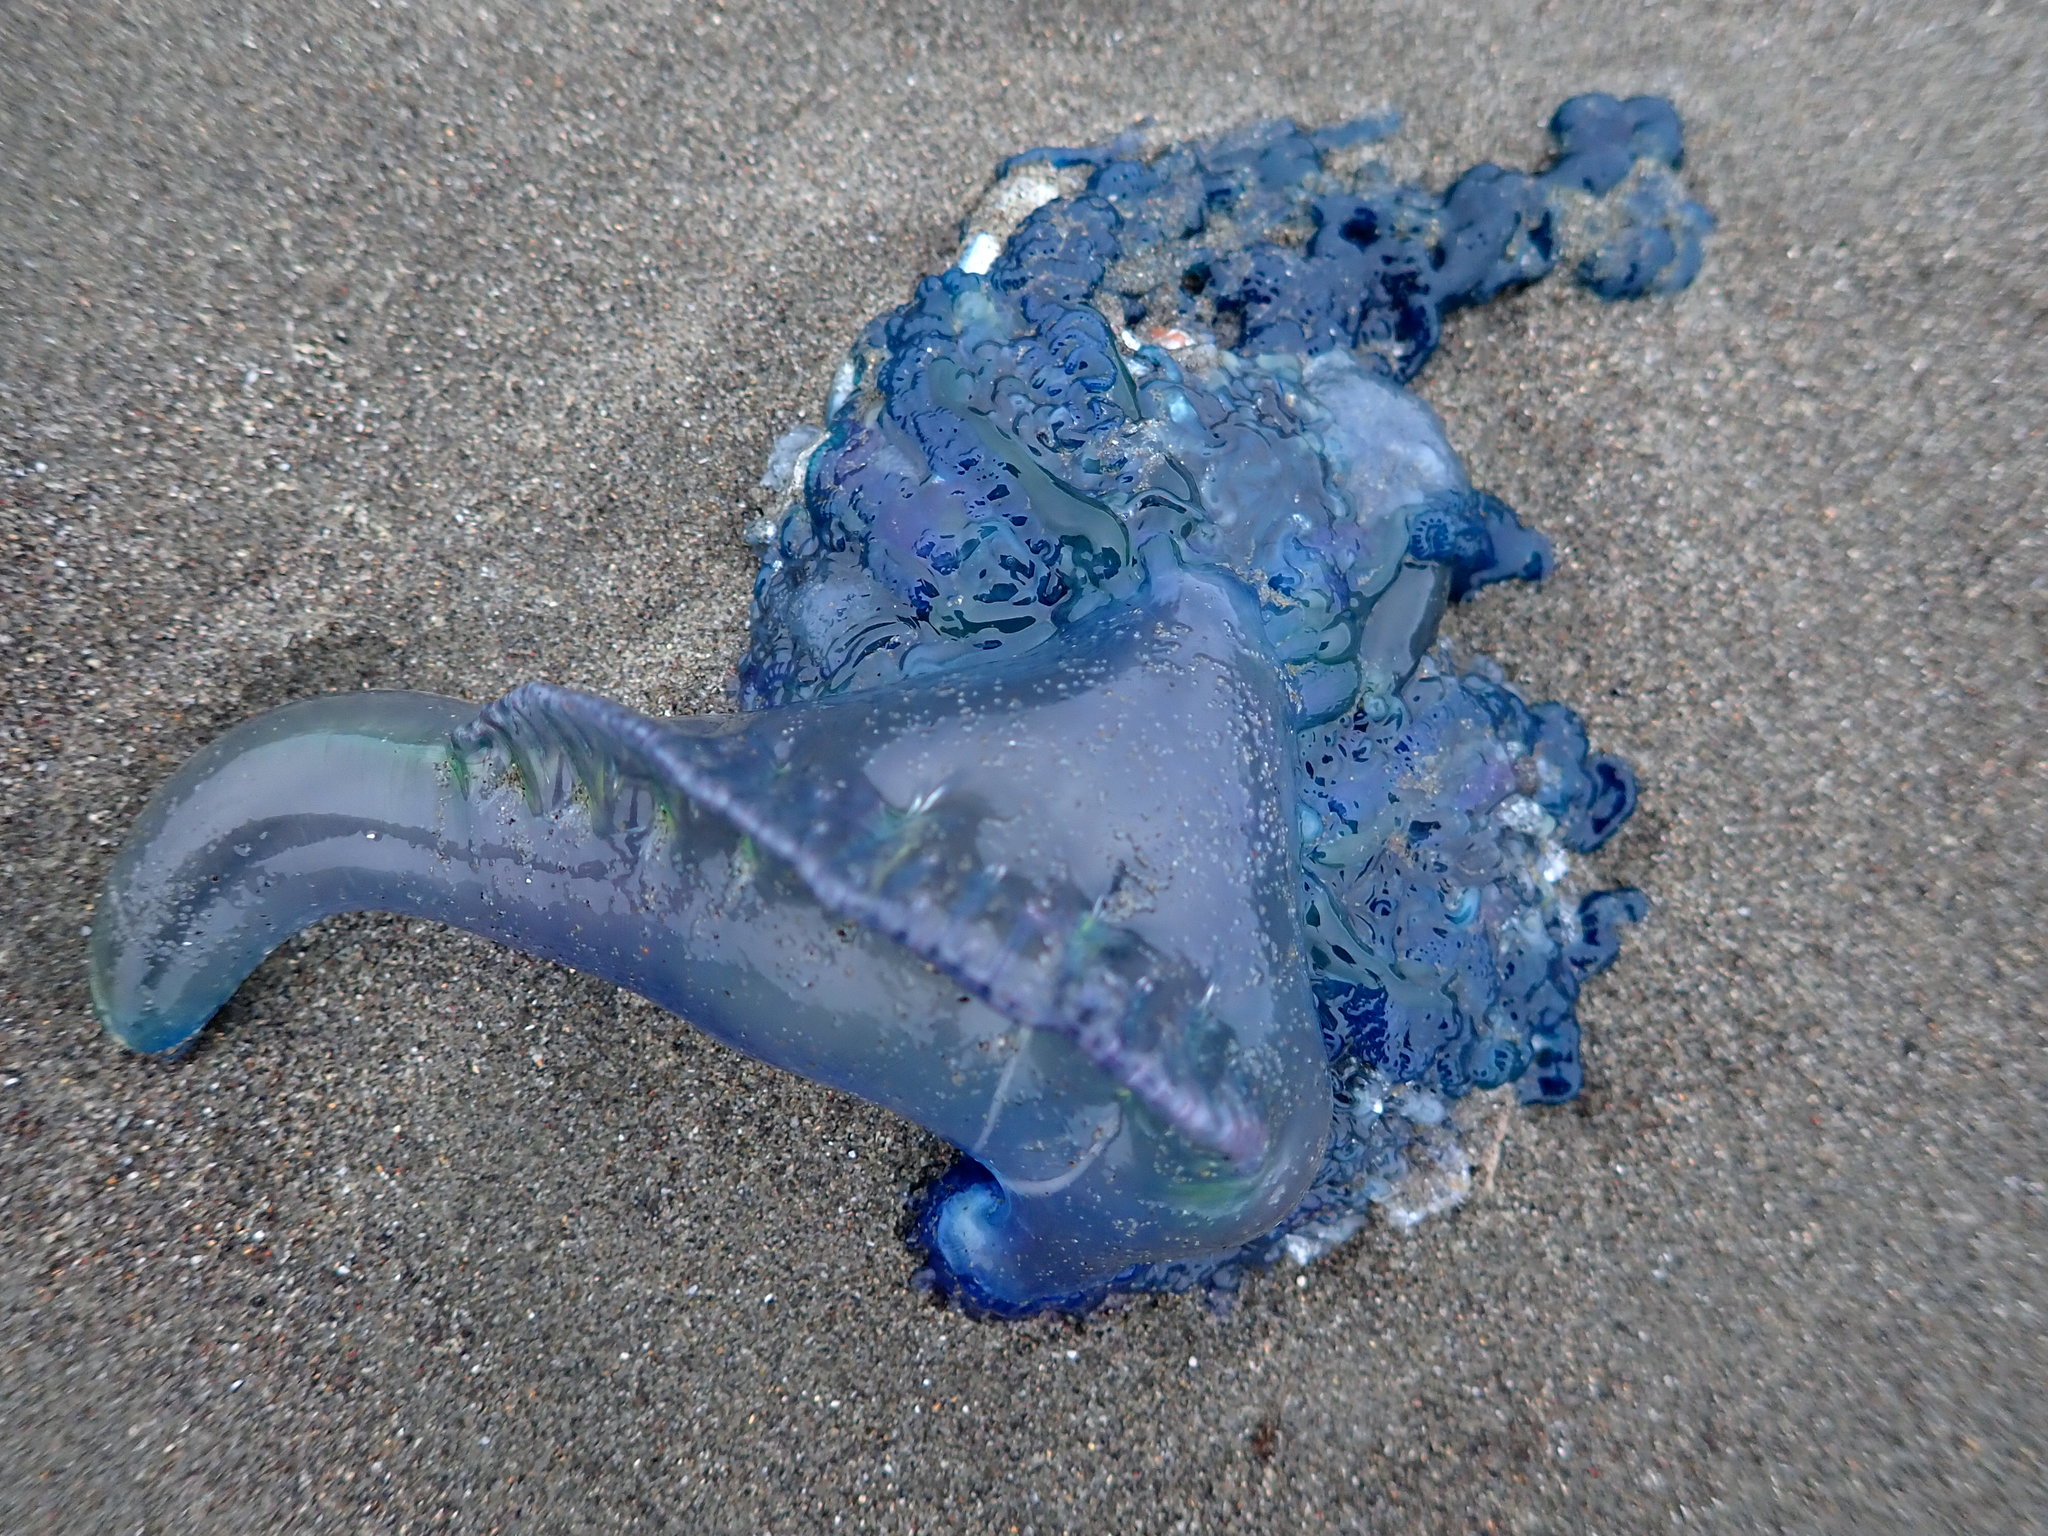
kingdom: Animalia
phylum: Cnidaria
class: Hydrozoa
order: Siphonophorae
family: Physaliidae
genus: Physalia
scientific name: Physalia physalis
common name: Portuguese man-of-war
